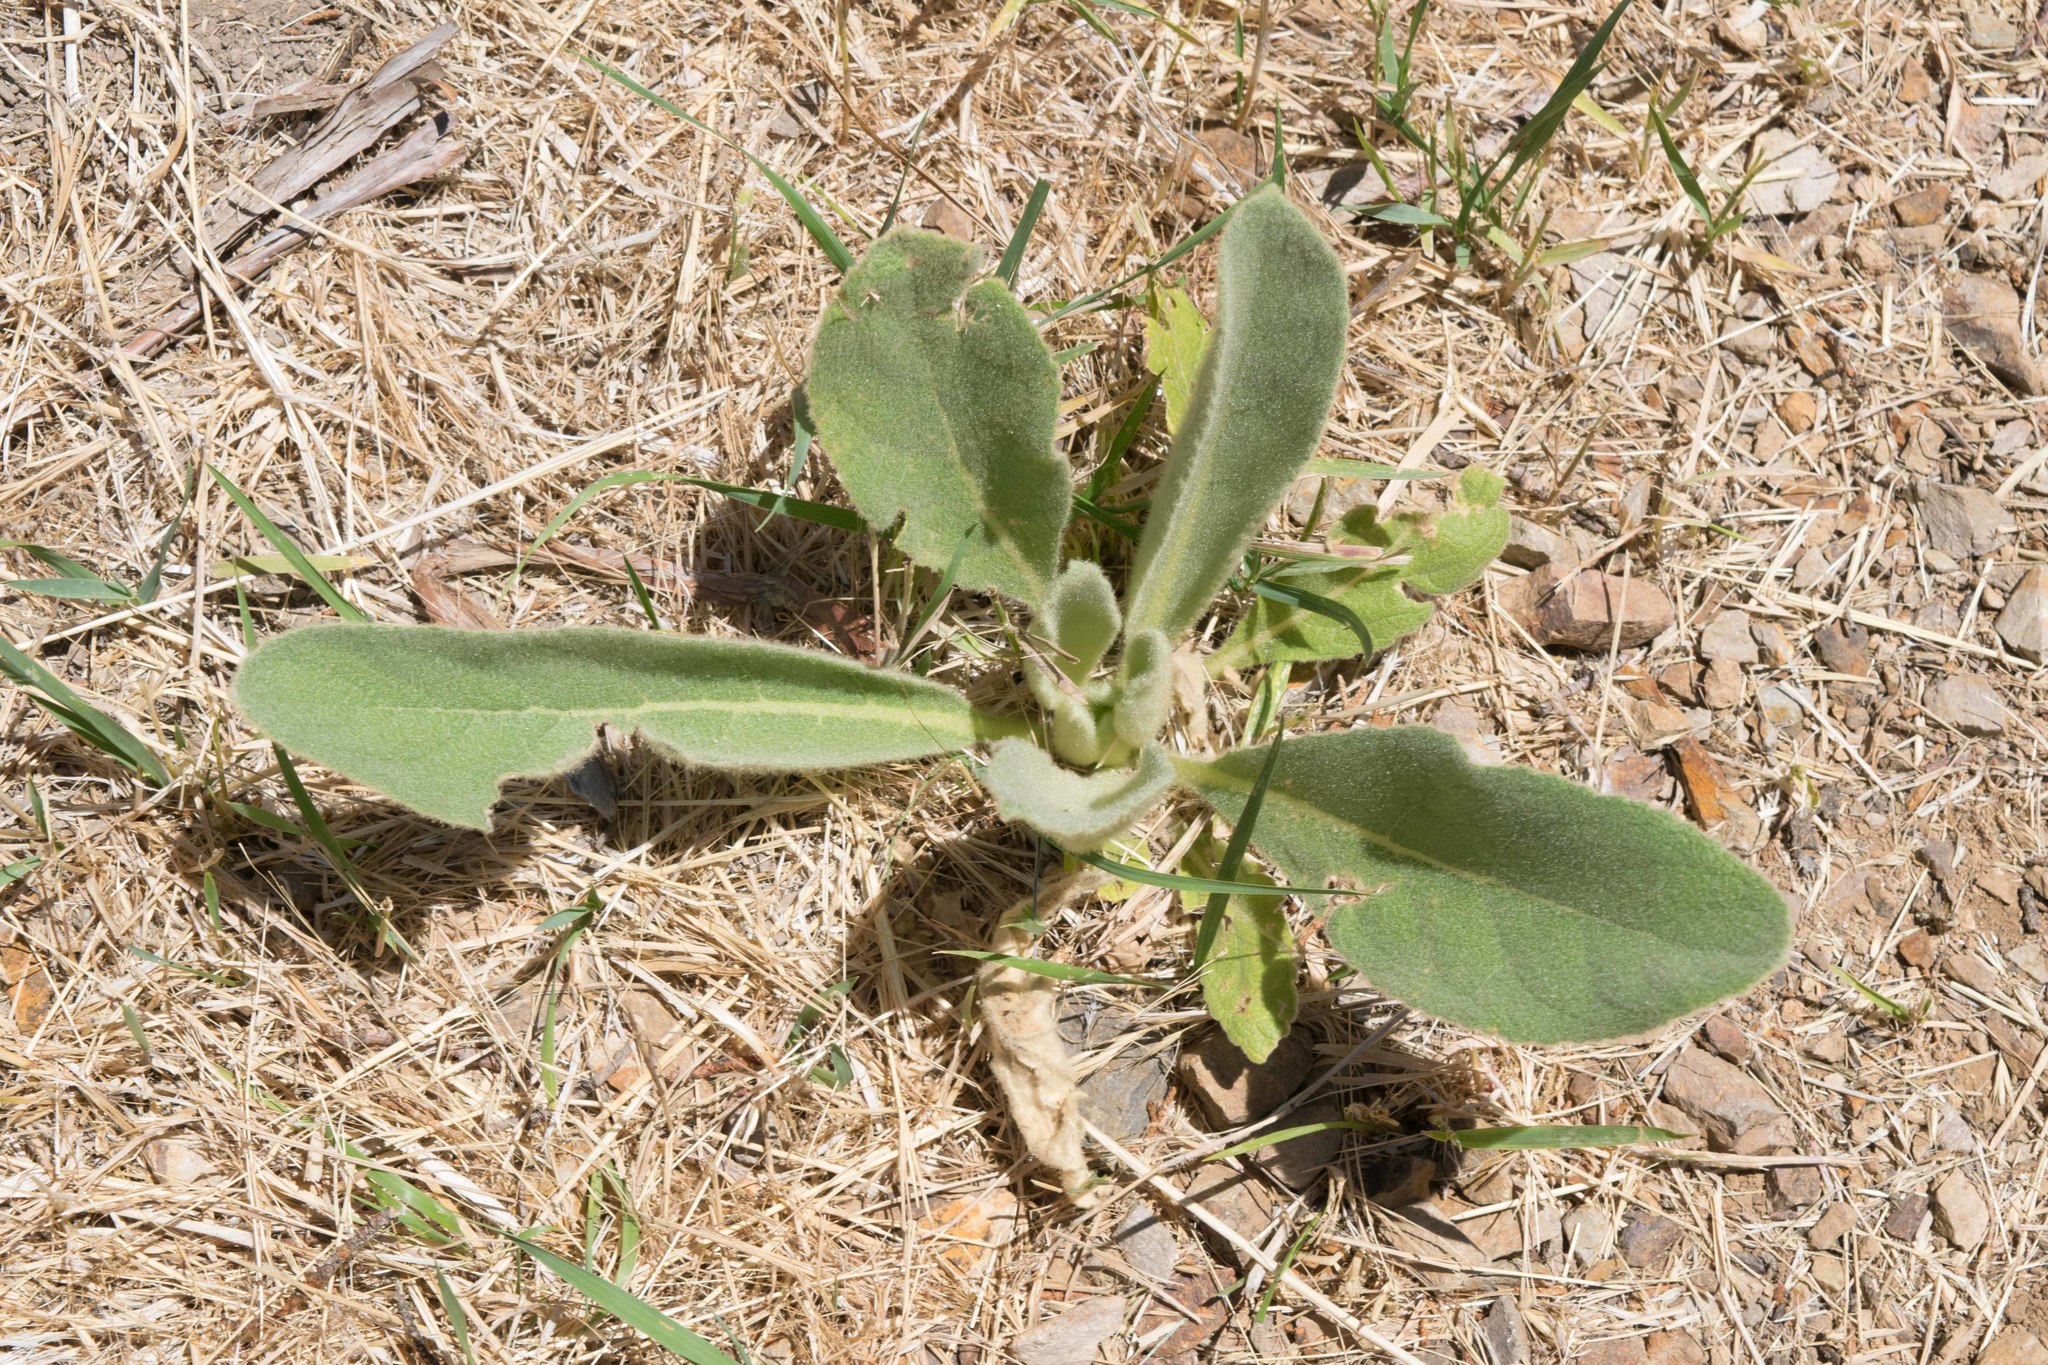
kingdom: Plantae
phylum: Tracheophyta
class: Magnoliopsida
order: Lamiales
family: Scrophulariaceae
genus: Verbascum
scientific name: Verbascum thapsus
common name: Common mullein
